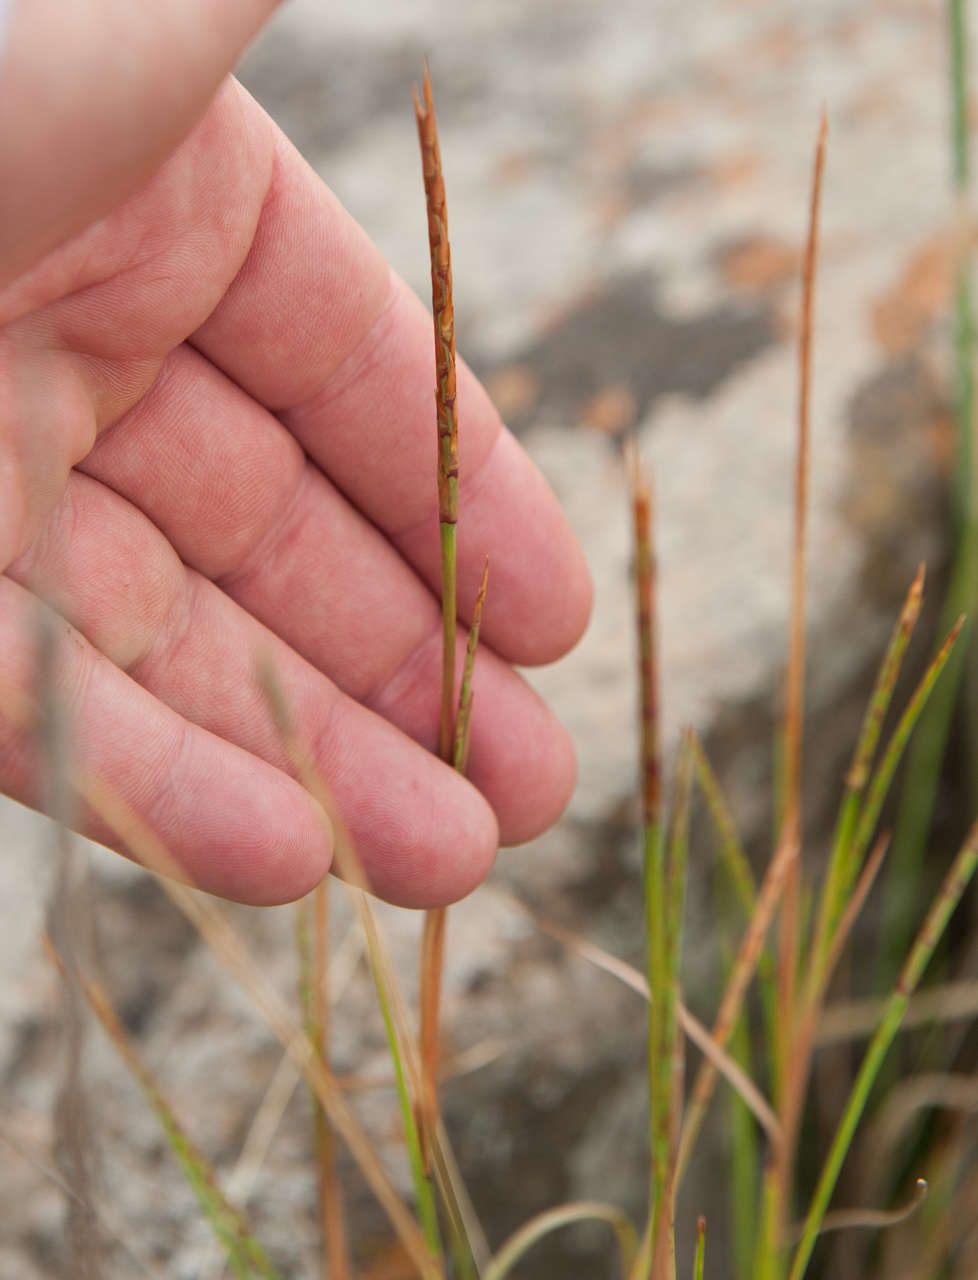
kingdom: Plantae
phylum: Tracheophyta
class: Liliopsida
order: Poales
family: Poaceae
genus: Hemarthria
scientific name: Hemarthria uncinata
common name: Matgrass
